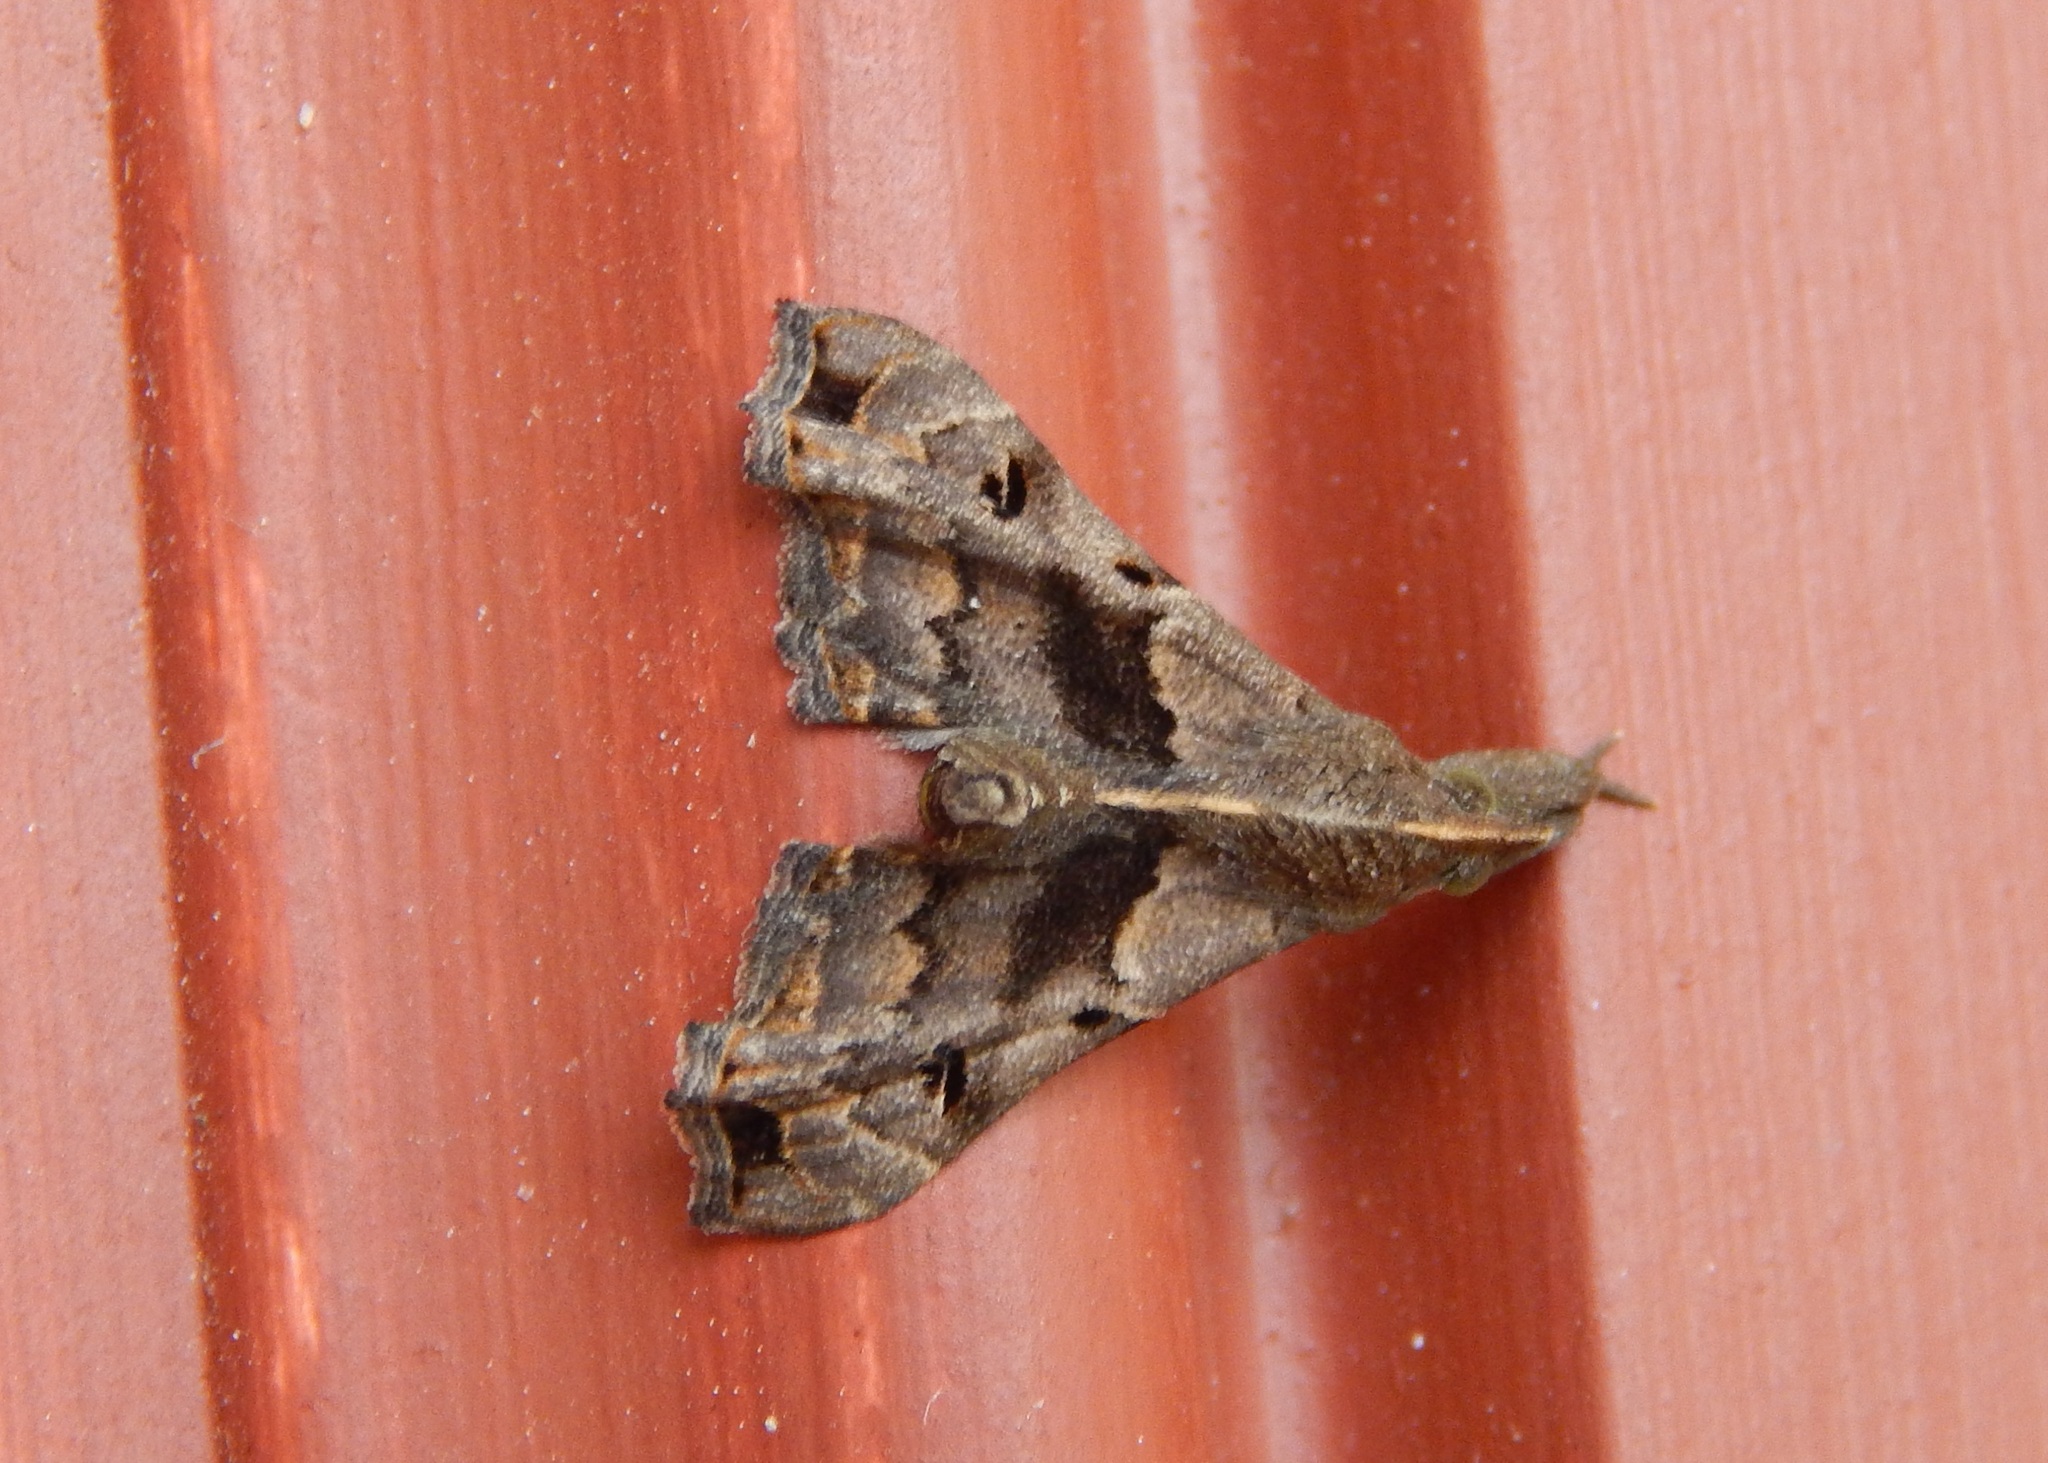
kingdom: Animalia
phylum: Arthropoda
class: Insecta
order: Lepidoptera
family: Erebidae
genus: Palthis
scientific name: Palthis asopialis
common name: Faint-spotted palthis moth
